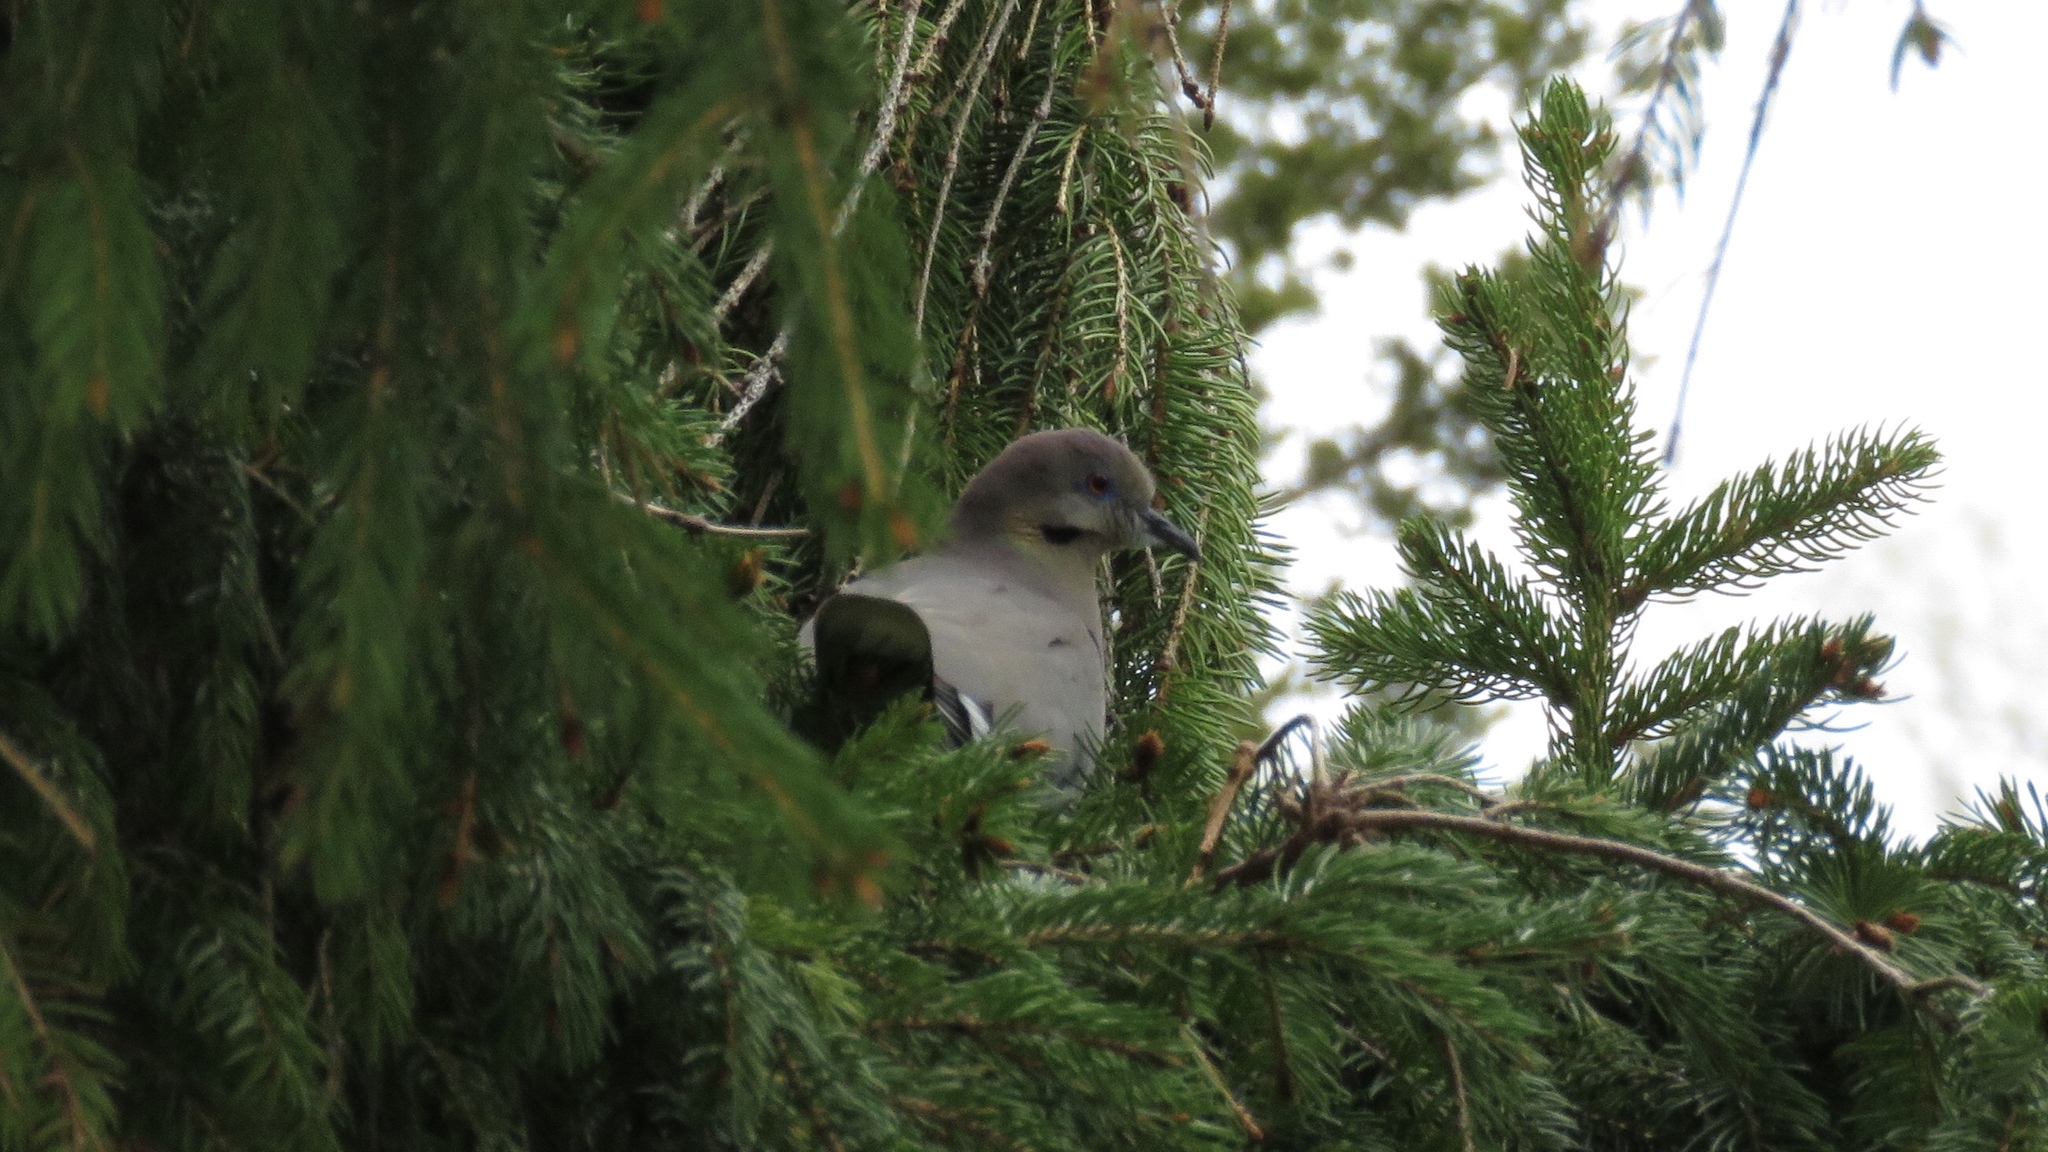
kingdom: Animalia
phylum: Chordata
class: Aves
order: Columbiformes
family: Columbidae
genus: Zenaida
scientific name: Zenaida asiatica
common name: White-winged dove
